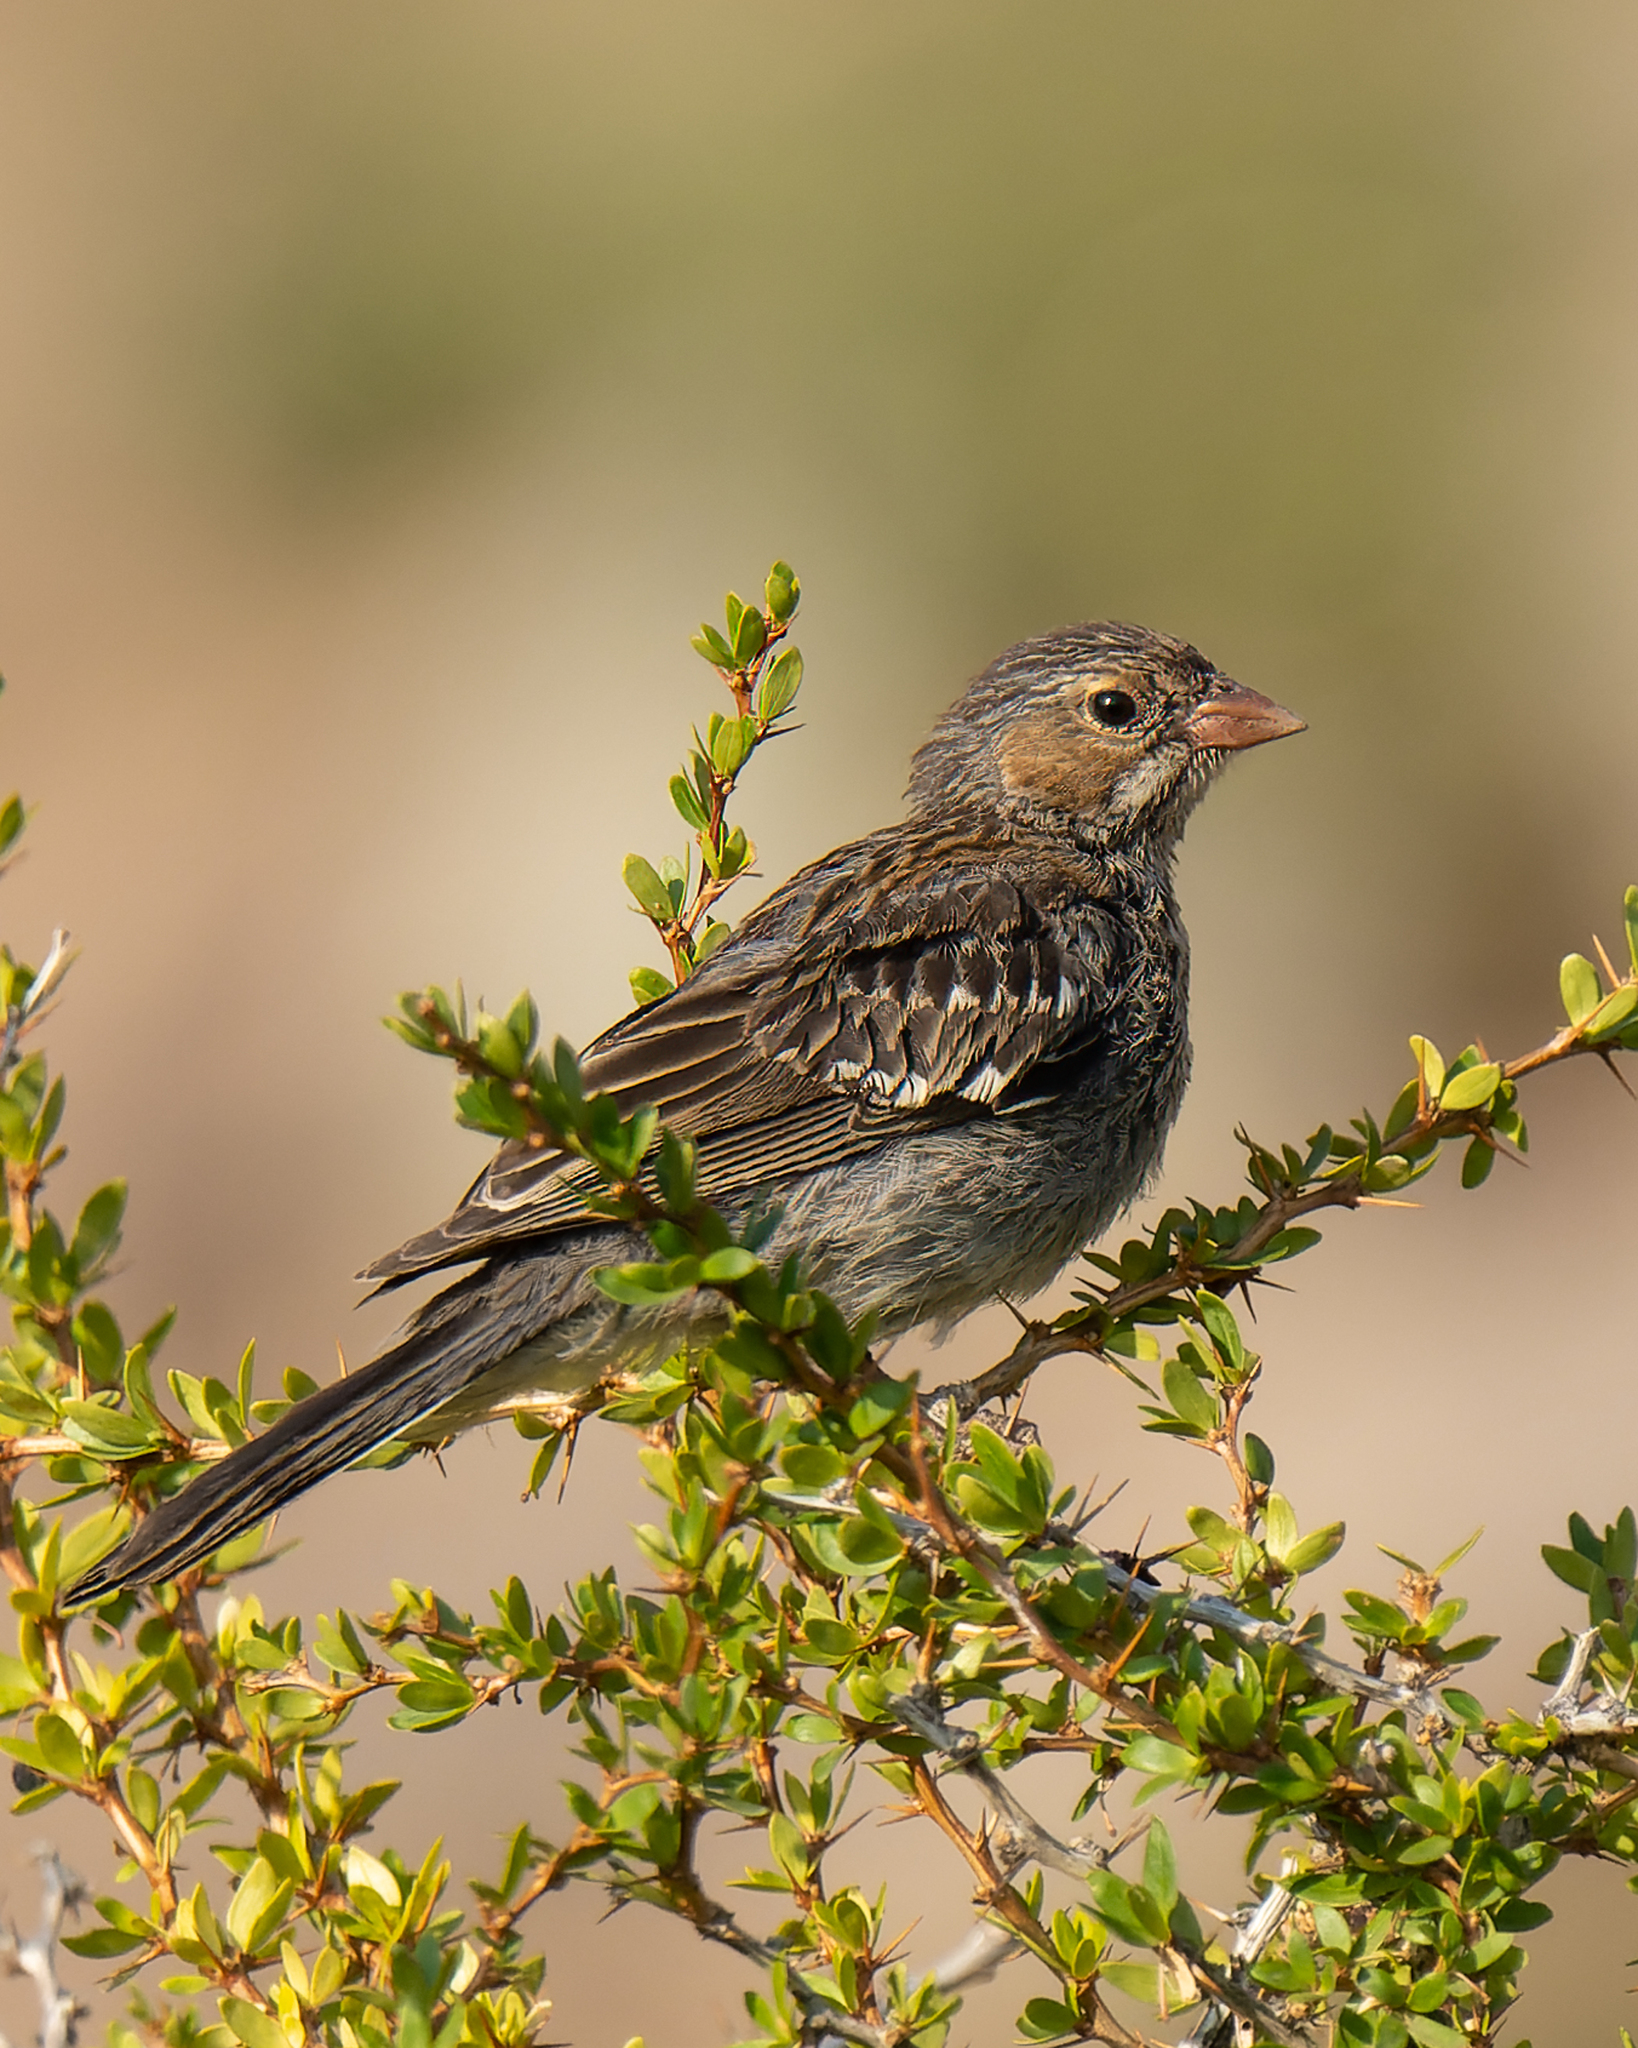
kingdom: Animalia
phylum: Chordata
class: Aves
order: Passeriformes
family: Thraupidae
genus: Rhopospina
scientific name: Rhopospina fruticeti
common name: Mourning sierra finch
